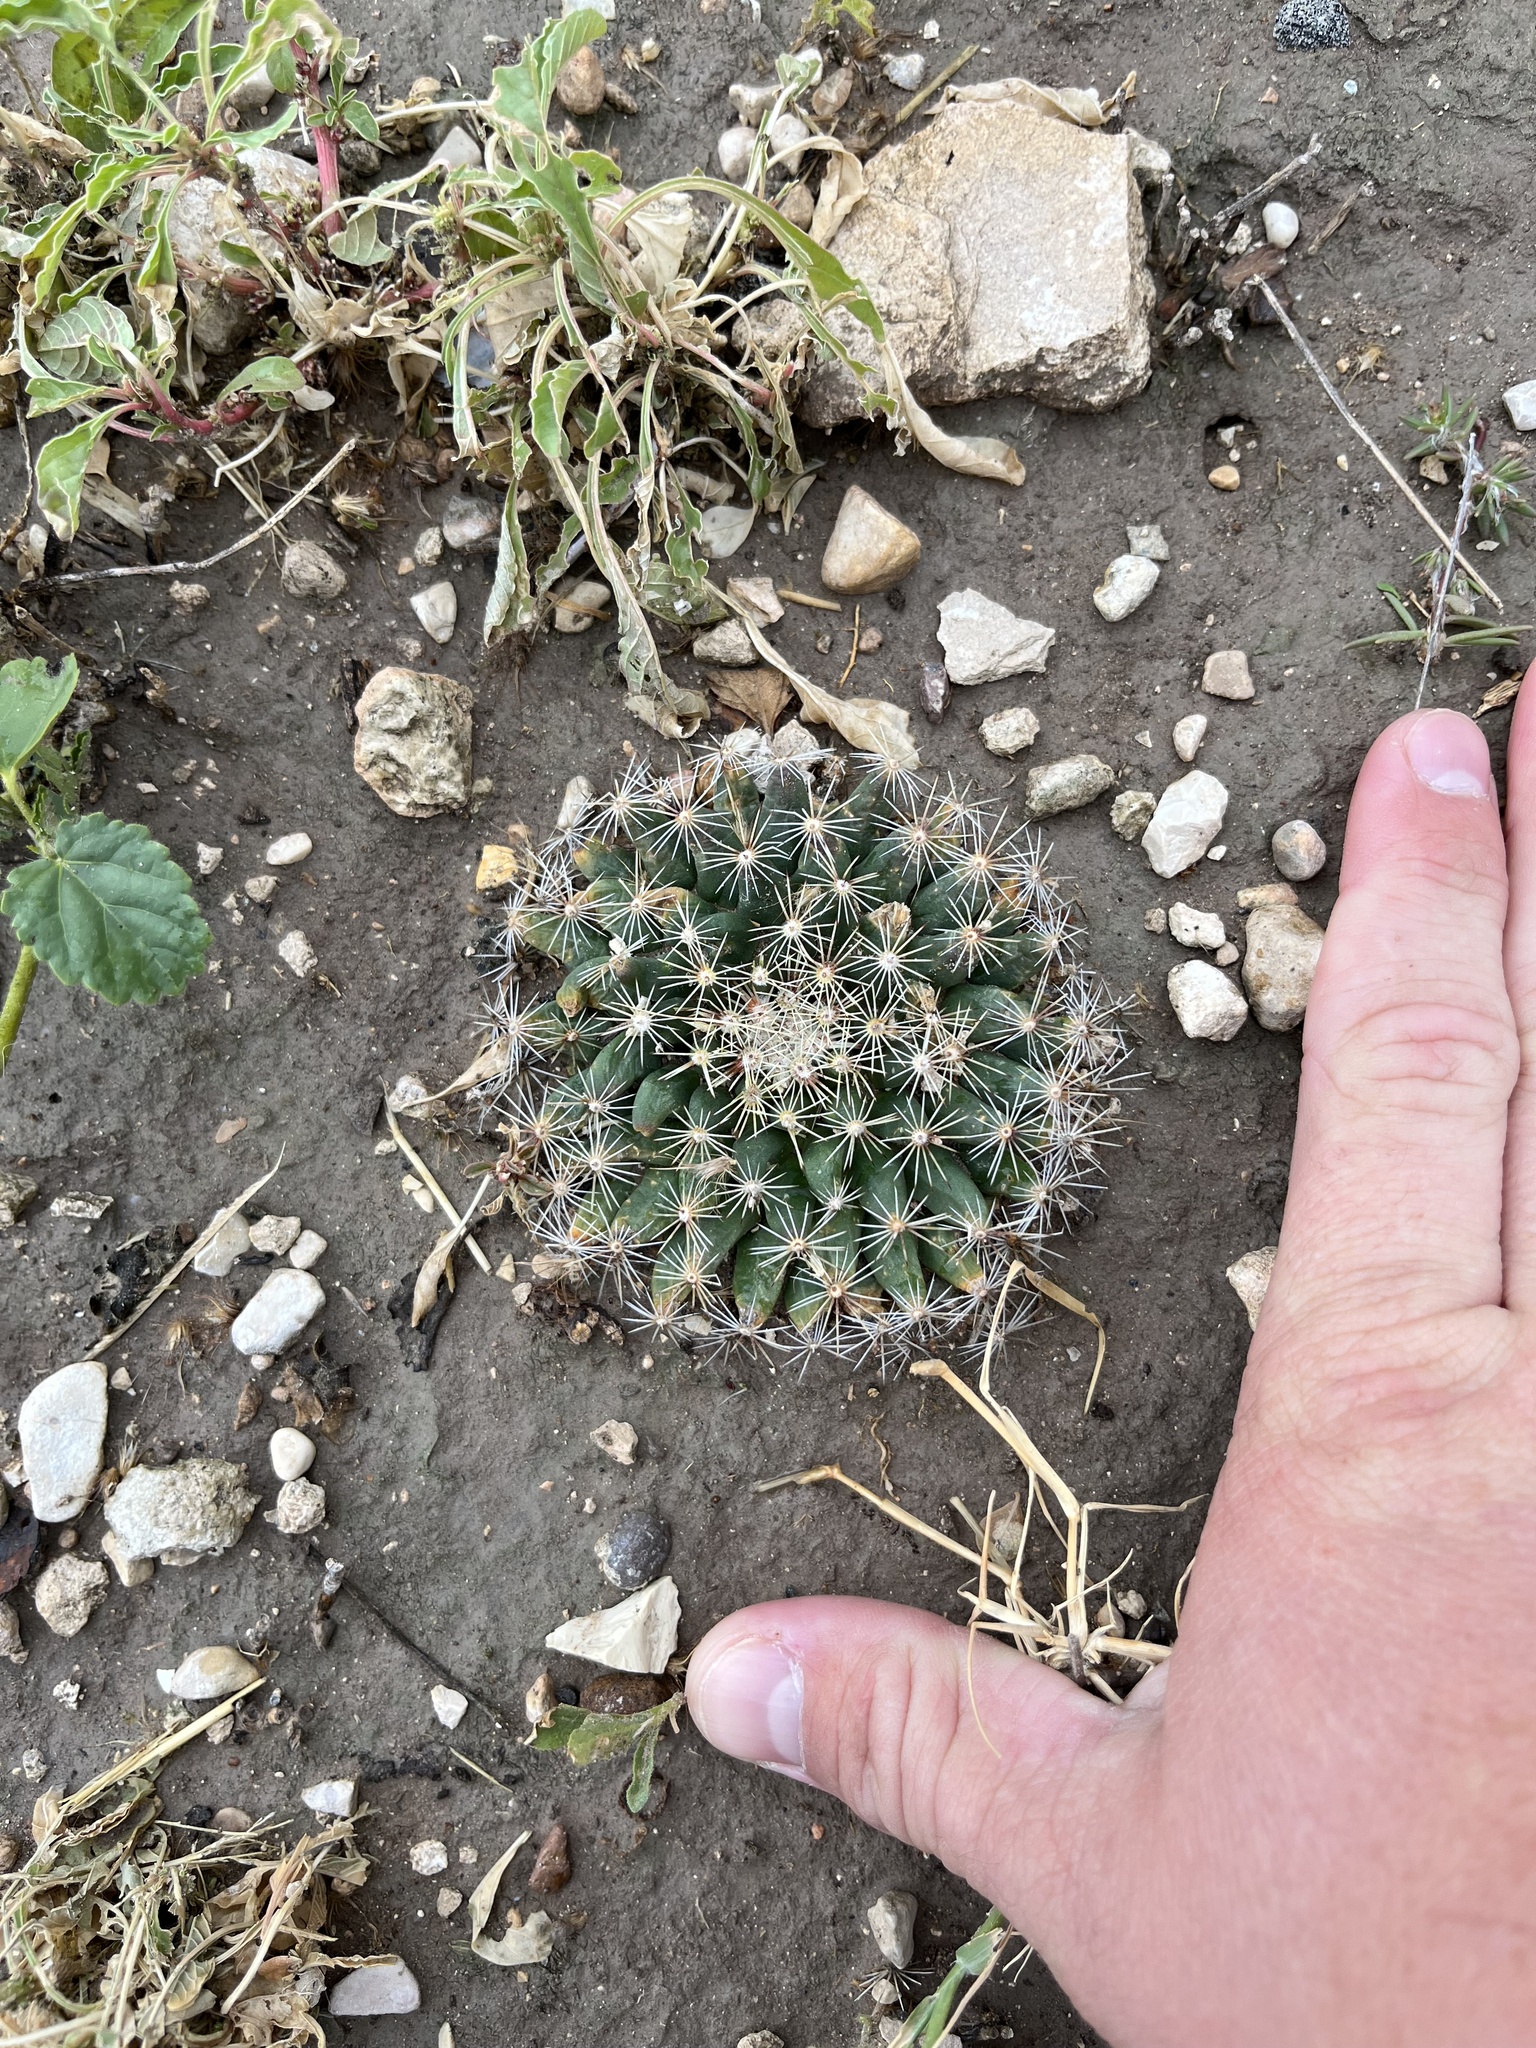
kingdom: Plantae
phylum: Tracheophyta
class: Magnoliopsida
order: Caryophyllales
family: Cactaceae
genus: Mammillaria
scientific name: Mammillaria heyderi
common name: Little nipple cactus
